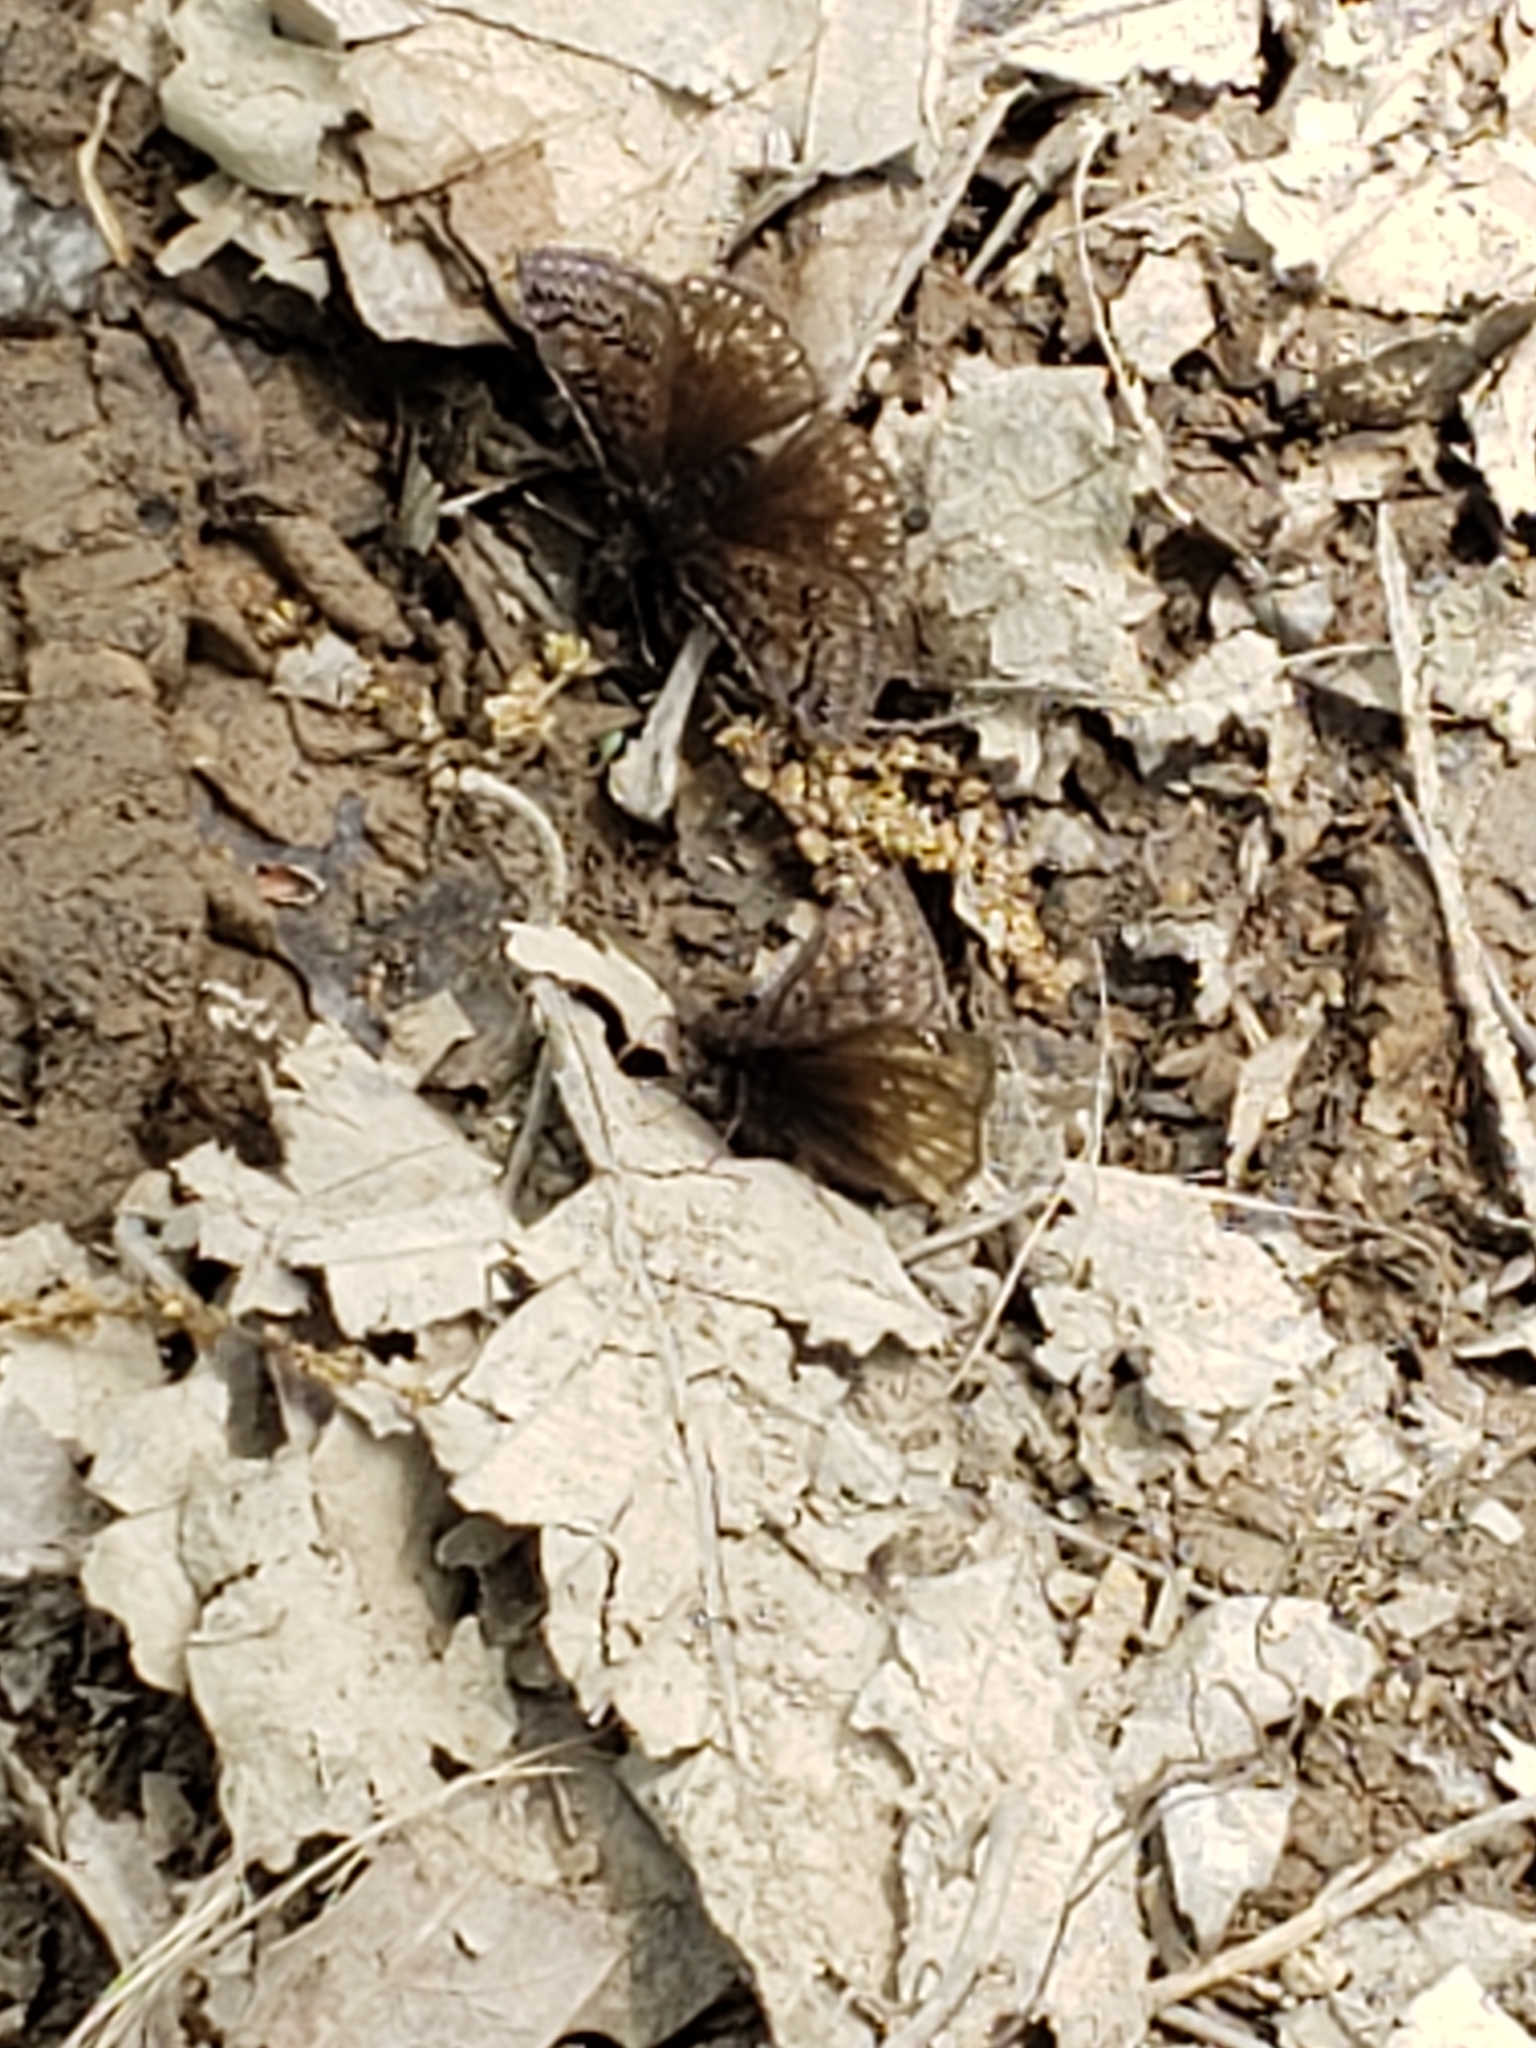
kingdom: Animalia
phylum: Arthropoda
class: Insecta
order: Lepidoptera
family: Hesperiidae
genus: Erynnis
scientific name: Erynnis juvenalis
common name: Juvenal's duskywing
